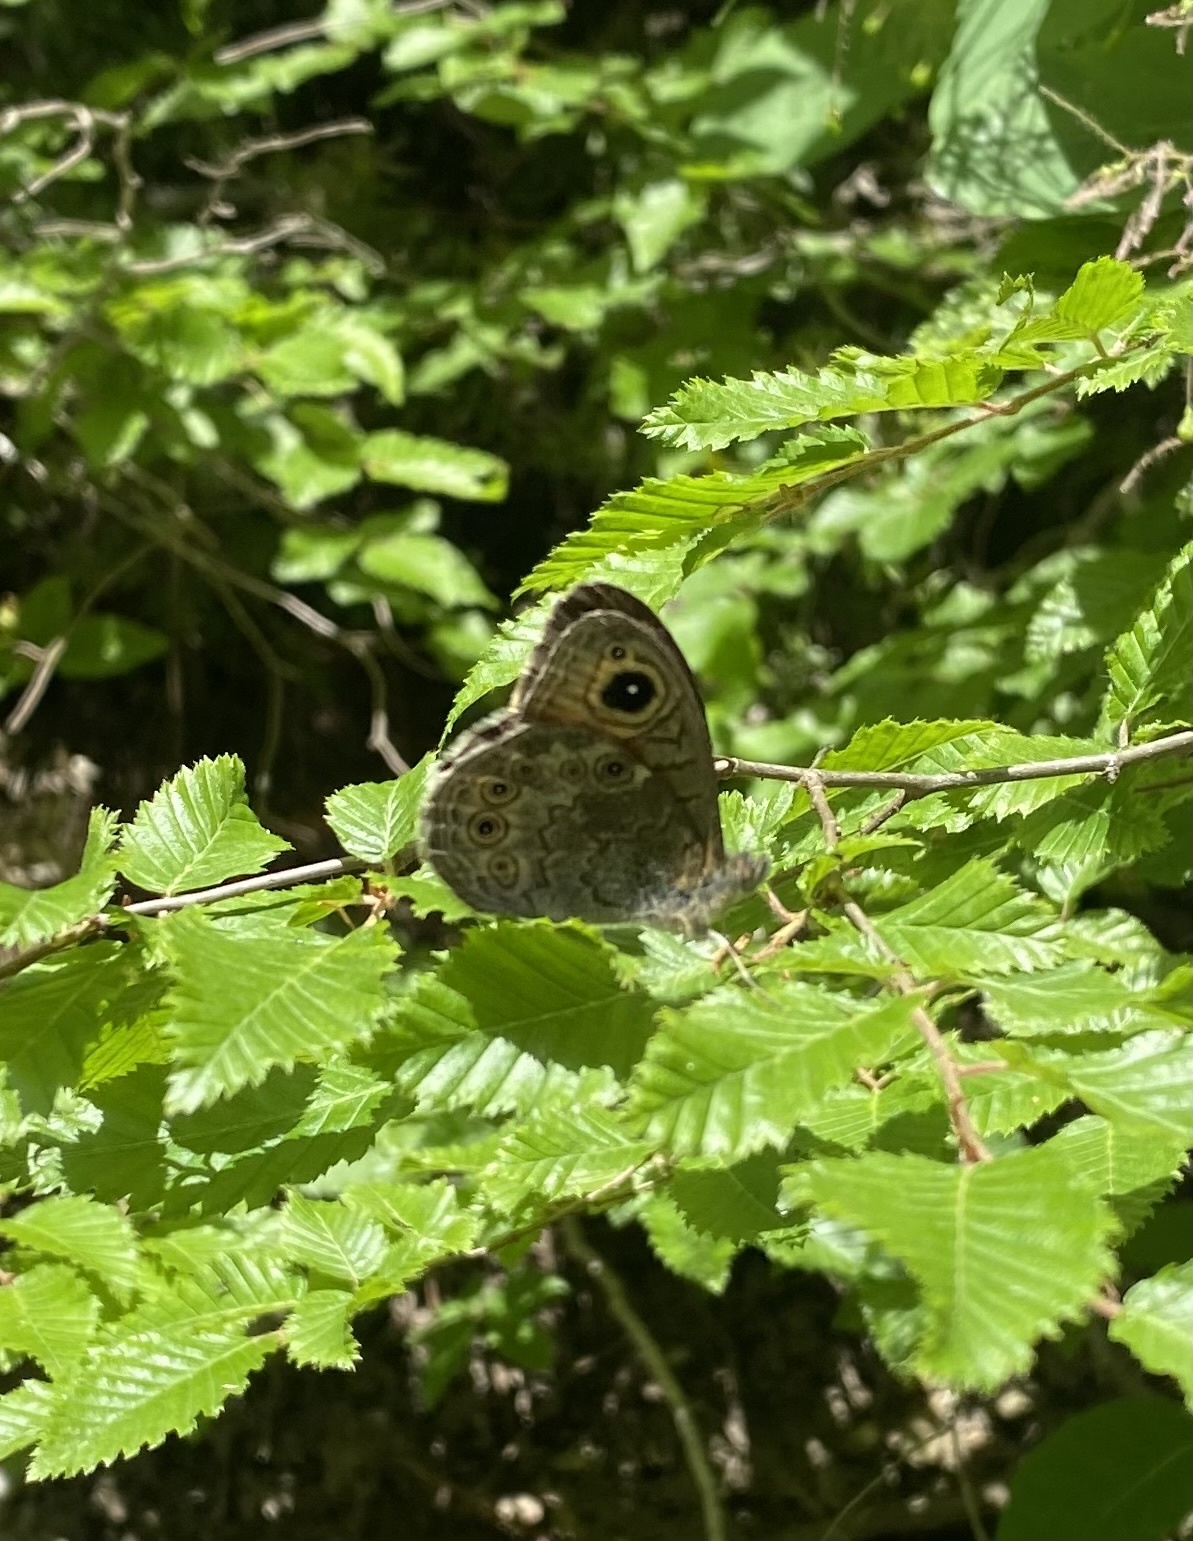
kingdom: Animalia
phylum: Arthropoda
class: Insecta
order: Lepidoptera
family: Nymphalidae
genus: Pararge
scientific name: Pararge Lasiommata maera
